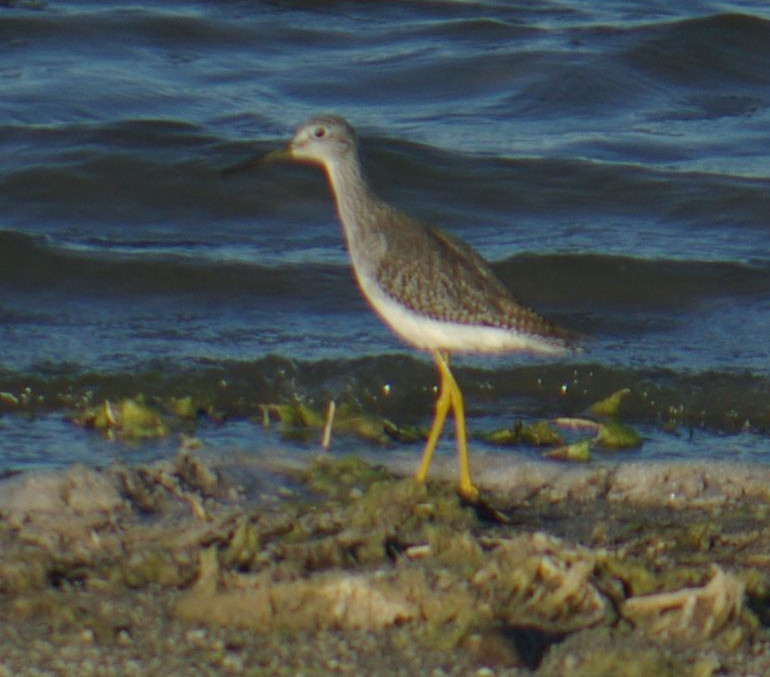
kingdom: Animalia
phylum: Chordata
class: Aves
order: Charadriiformes
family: Scolopacidae
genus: Tringa
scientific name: Tringa melanoleuca
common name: Greater yellowlegs
